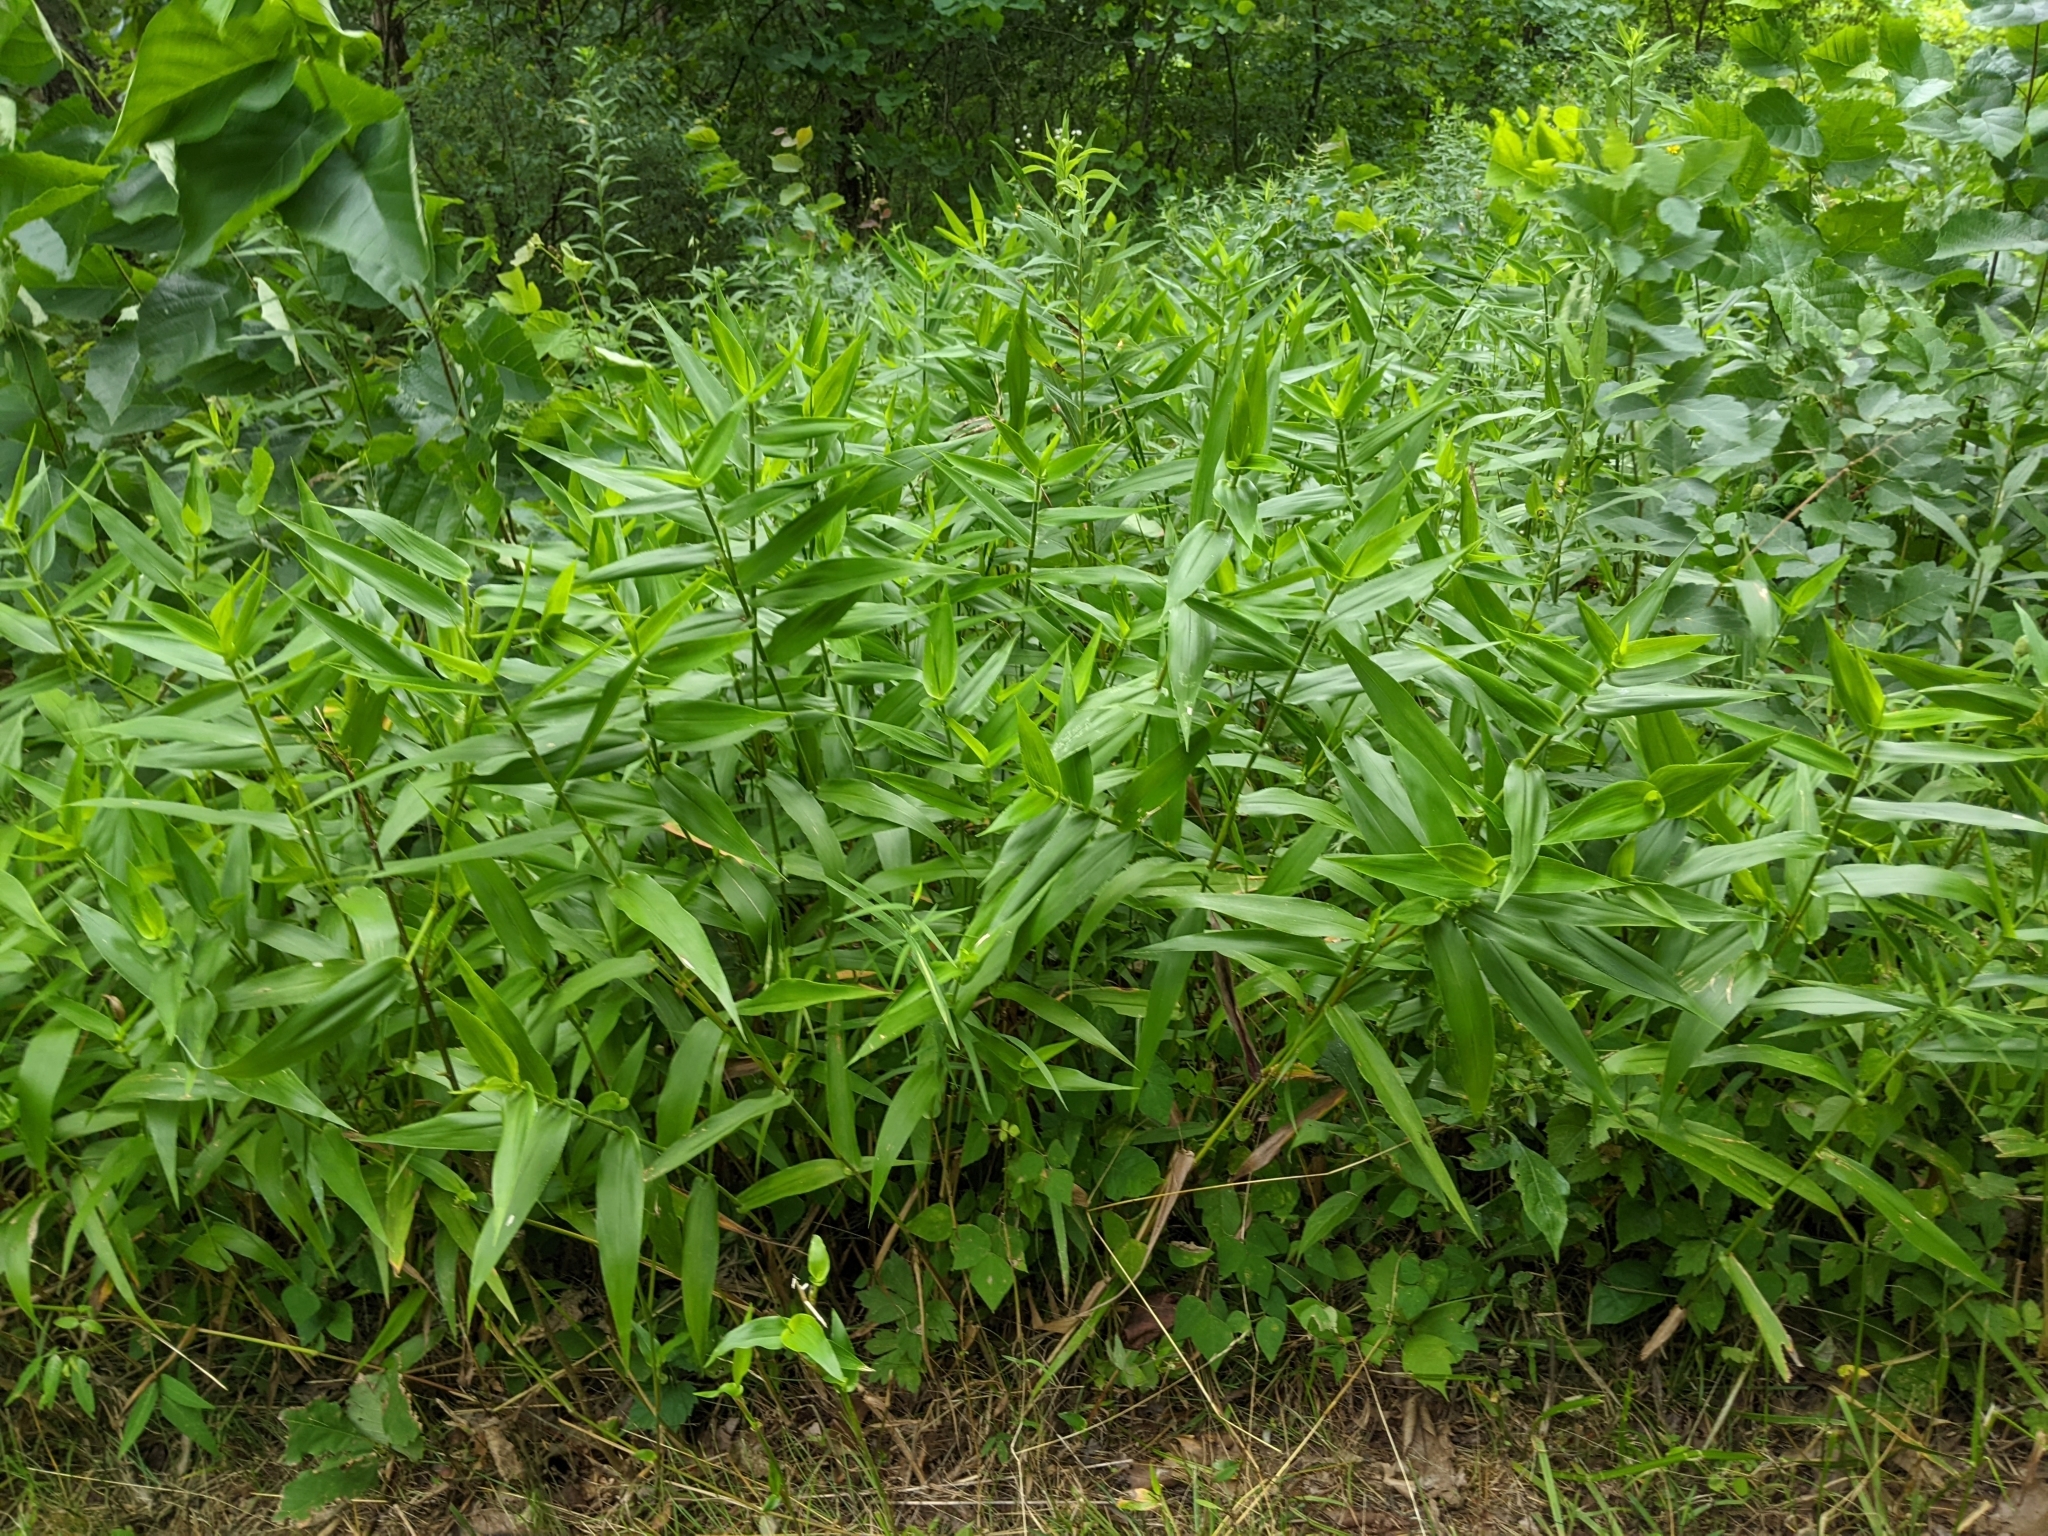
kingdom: Plantae
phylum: Tracheophyta
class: Liliopsida
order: Poales
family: Poaceae
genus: Dichanthelium
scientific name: Dichanthelium clandestinum
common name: Deer-tongue grass
